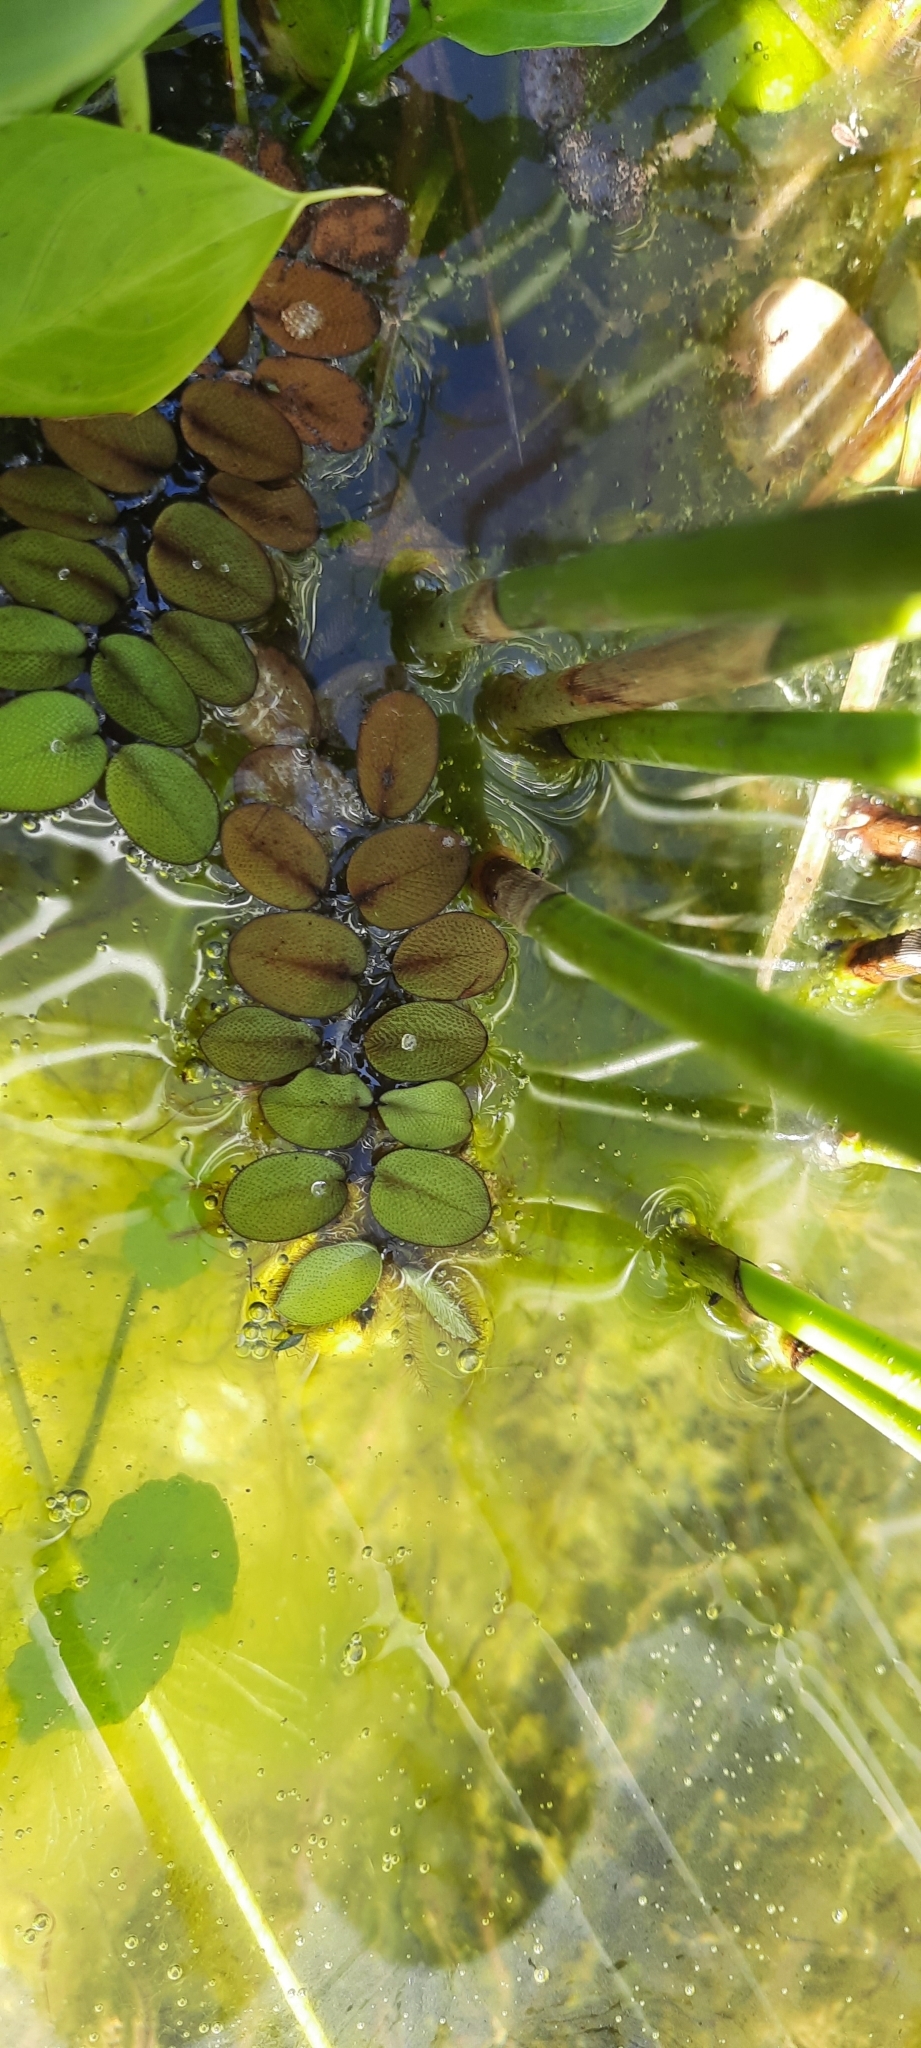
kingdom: Plantae
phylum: Tracheophyta
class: Polypodiopsida
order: Salviniales
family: Salviniaceae
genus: Salvinia
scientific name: Salvinia molesta
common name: Kariba weed
